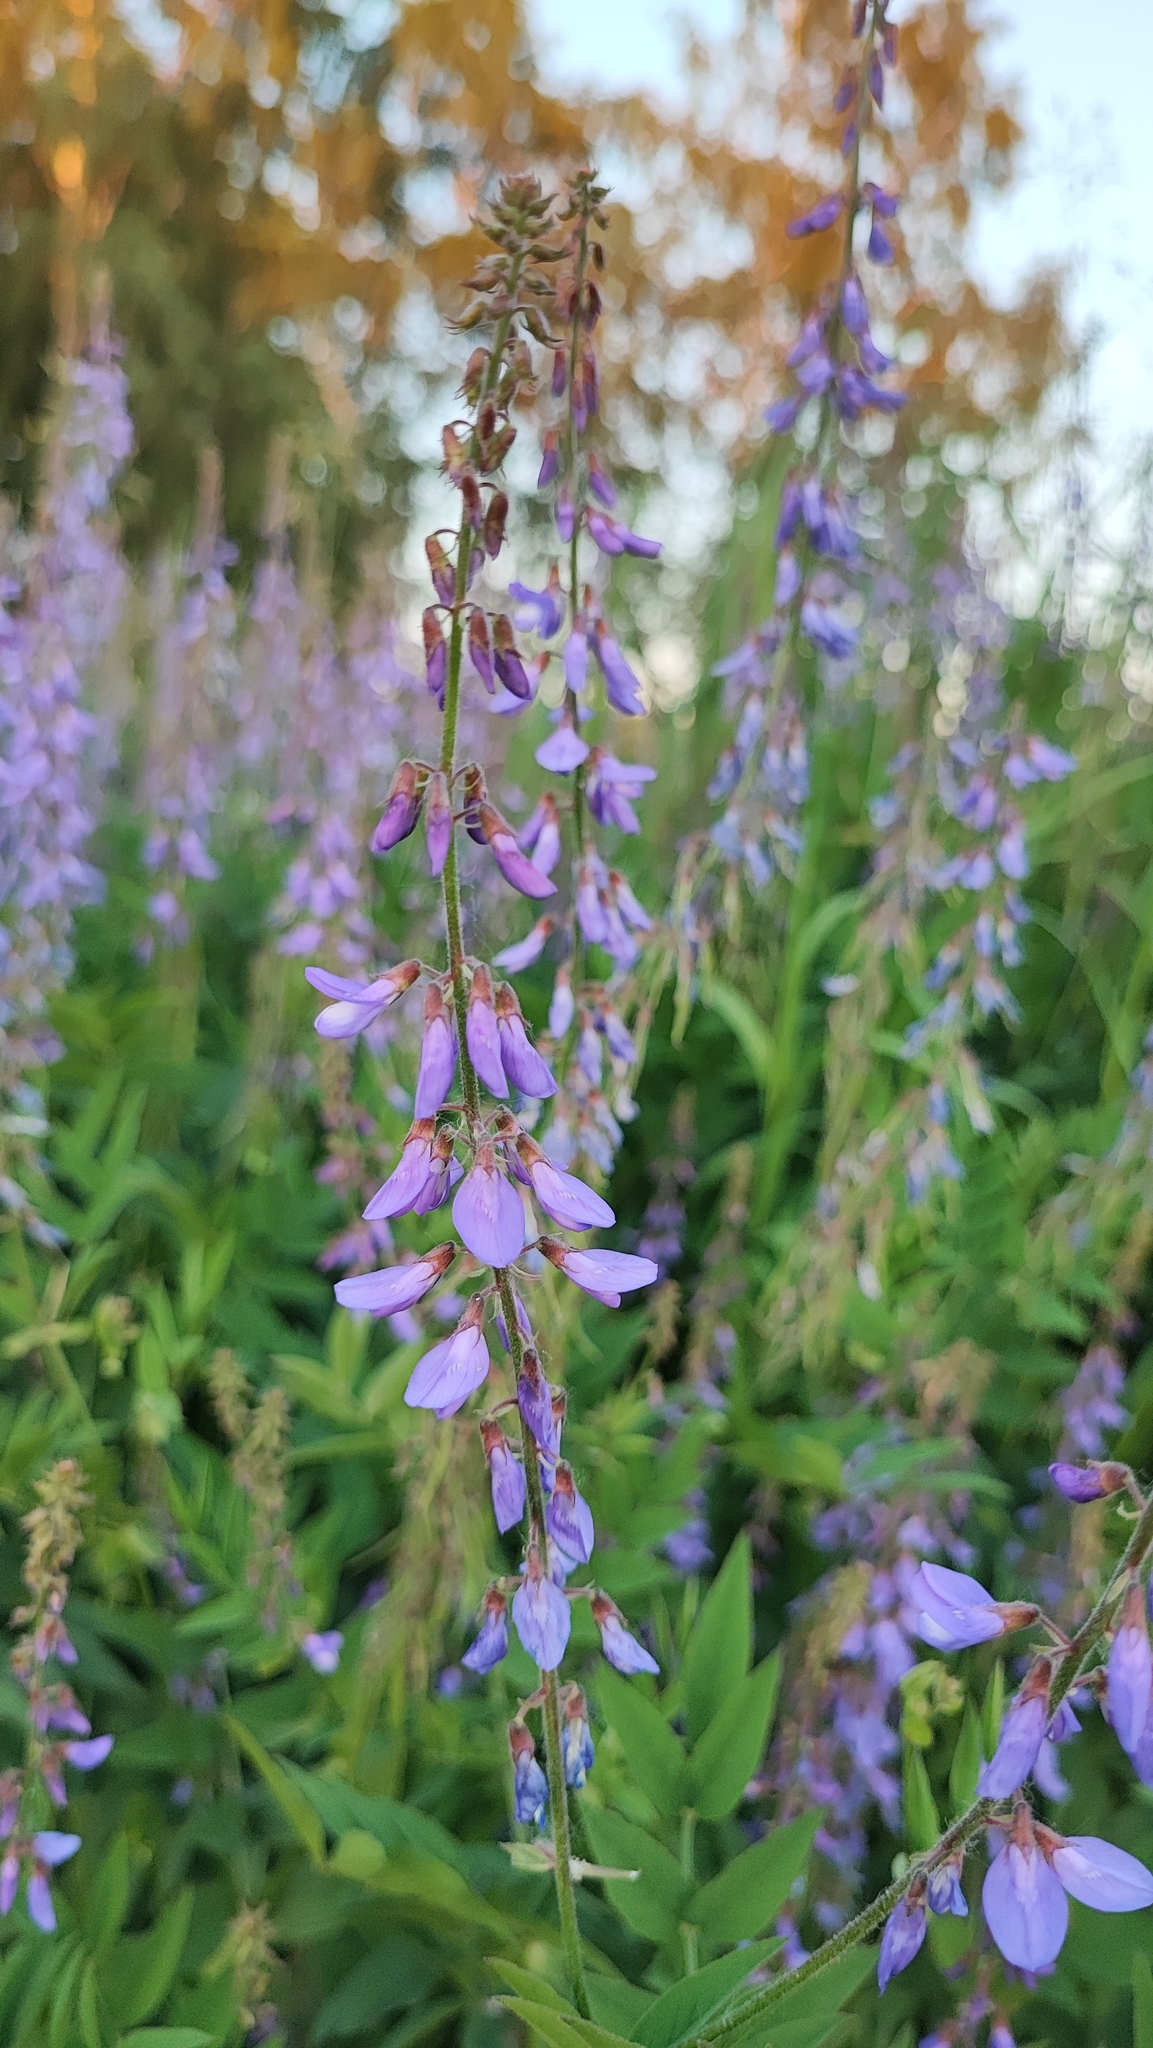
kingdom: Plantae
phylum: Tracheophyta
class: Magnoliopsida
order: Fabales
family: Fabaceae
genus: Galega
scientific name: Galega orientalis
